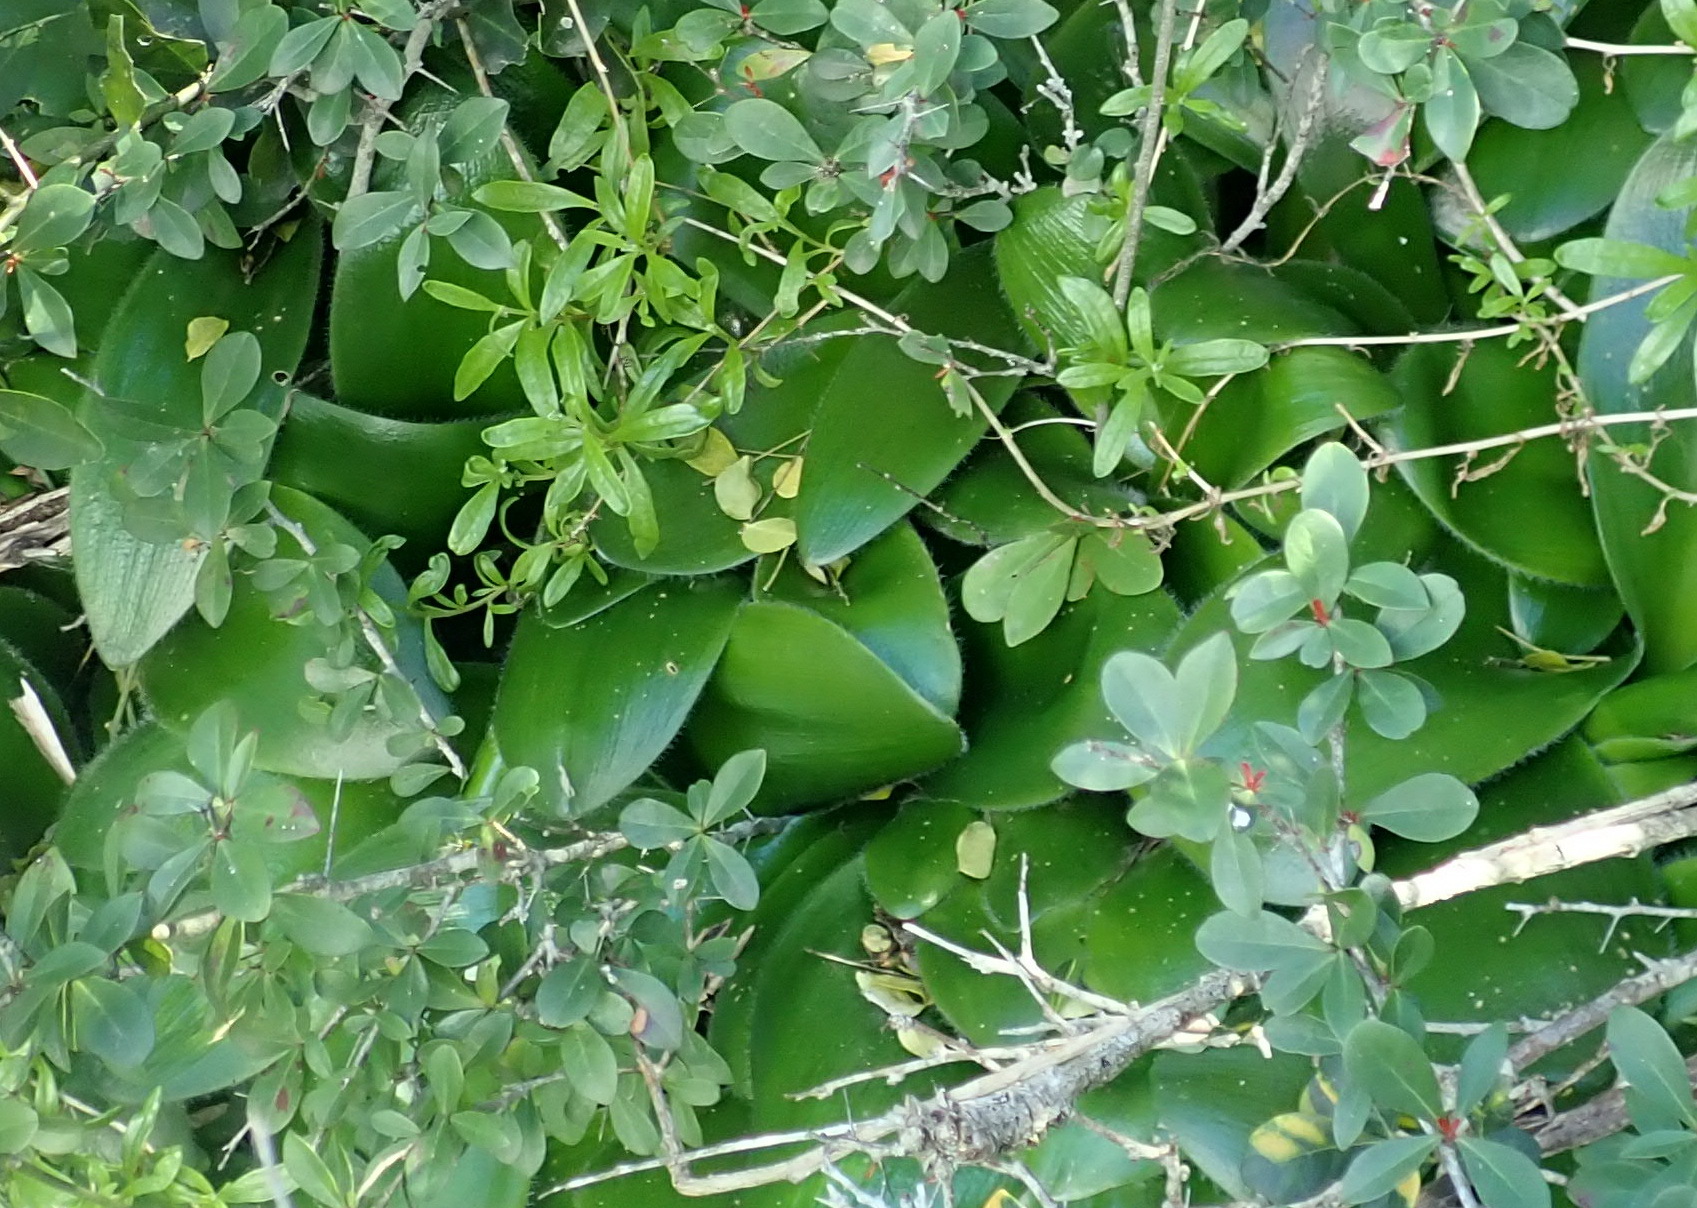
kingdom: Plantae
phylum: Tracheophyta
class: Liliopsida
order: Asparagales
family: Amaryllidaceae
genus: Haemanthus
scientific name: Haemanthus albiflos
